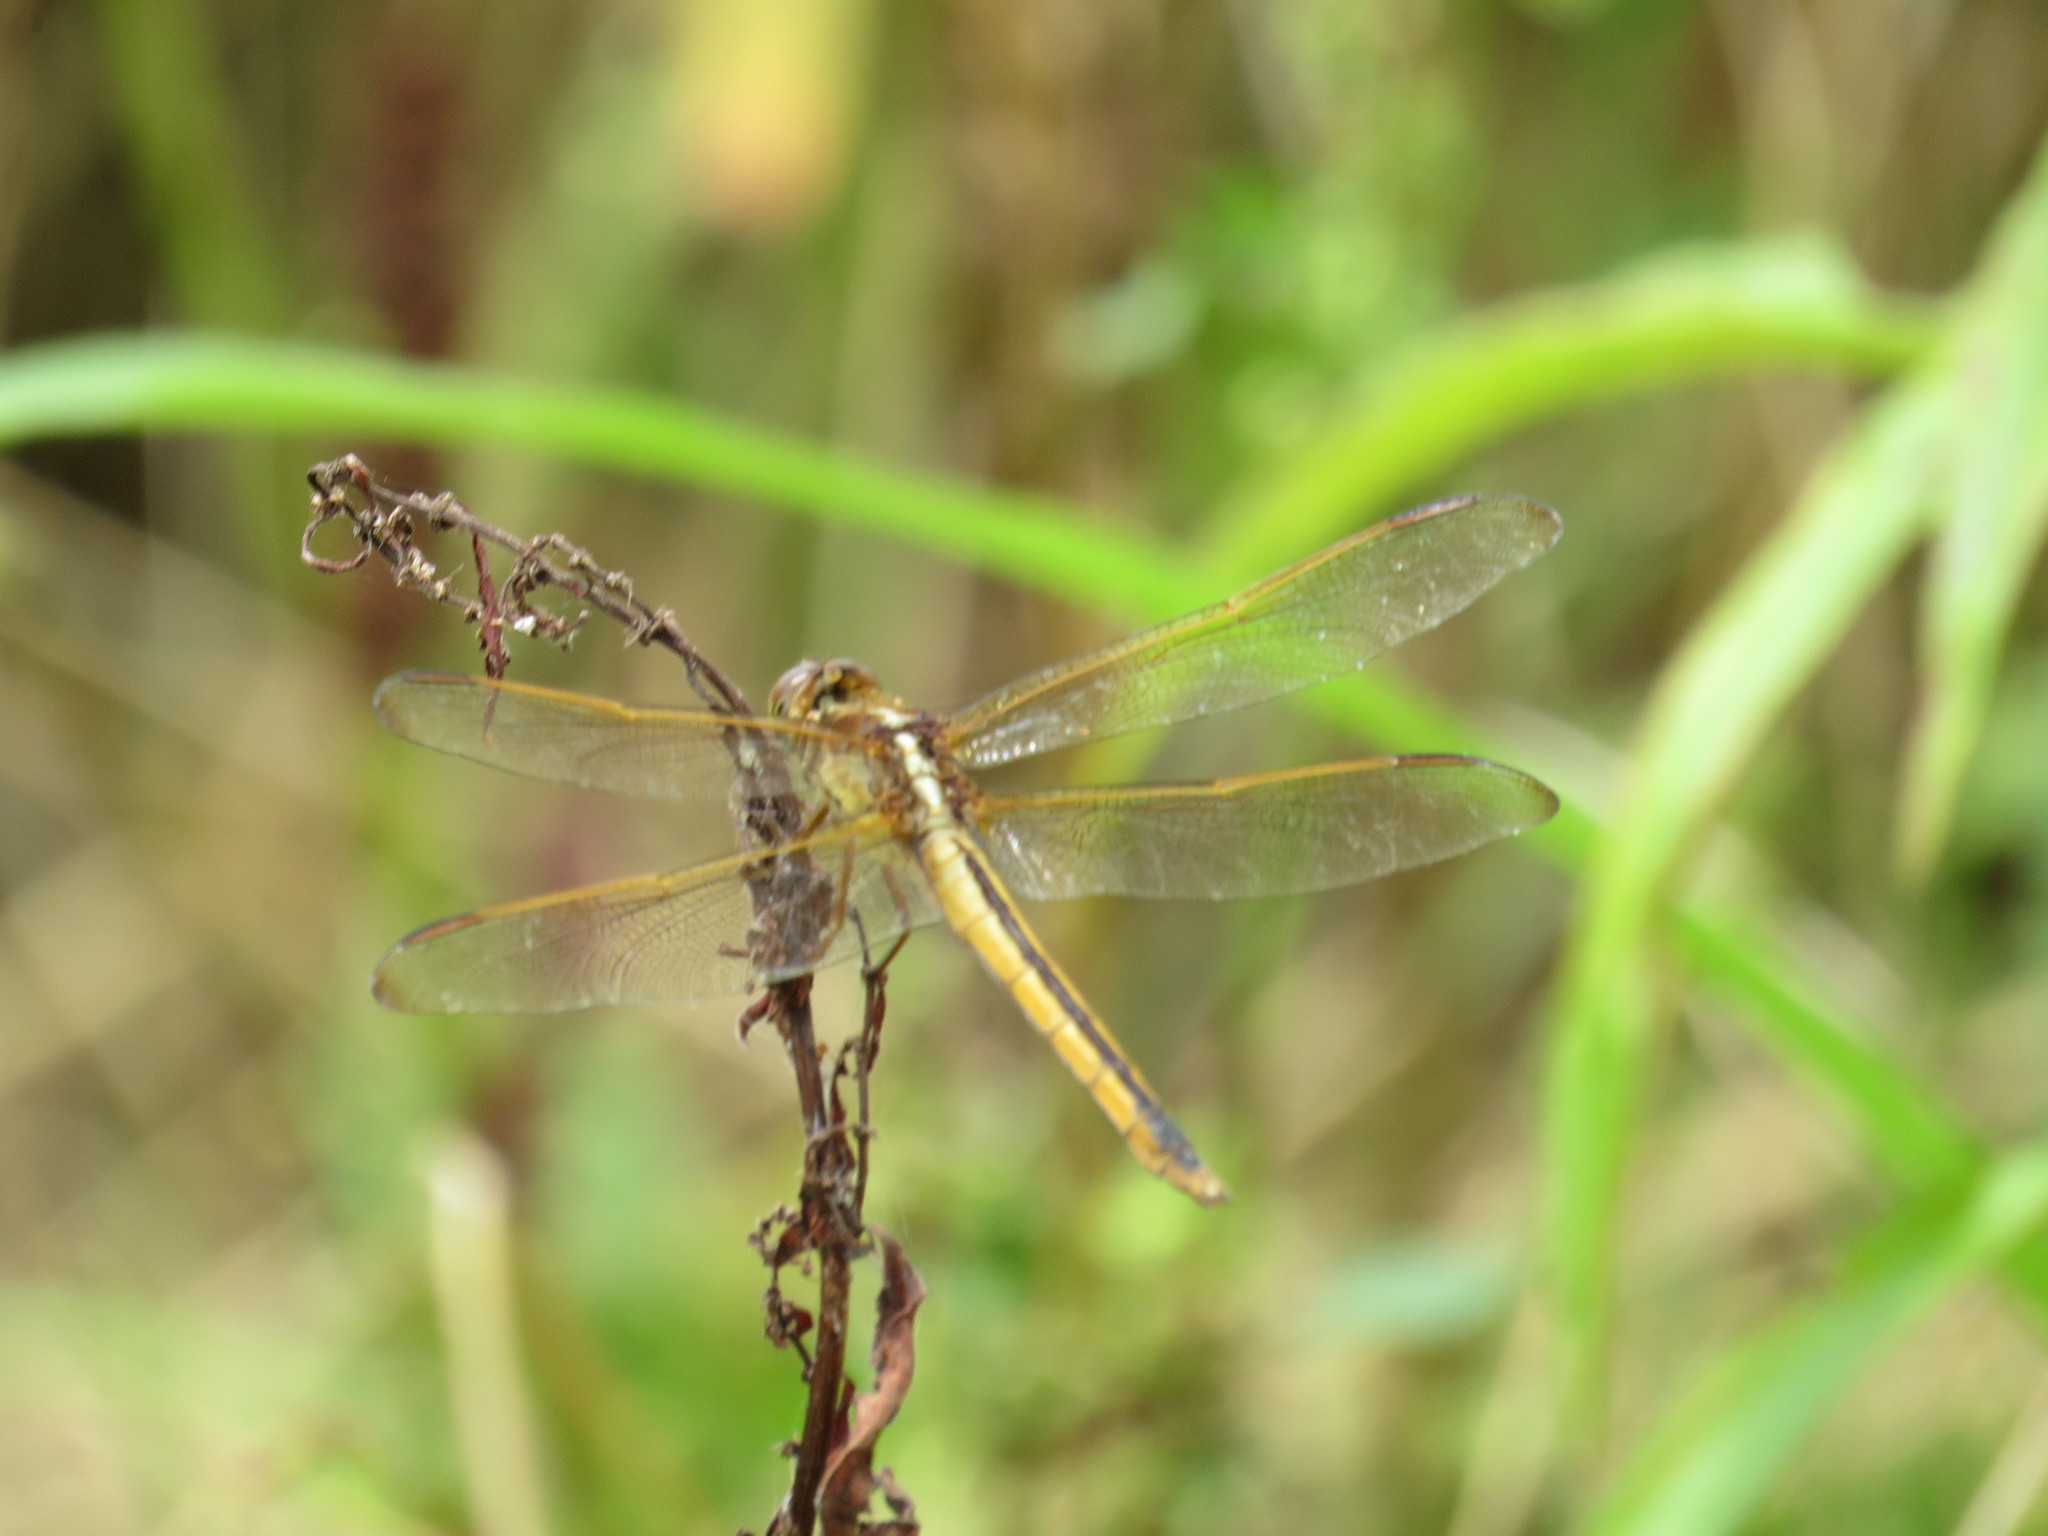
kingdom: Animalia
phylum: Arthropoda
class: Insecta
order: Odonata
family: Libellulidae
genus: Libellula
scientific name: Libellula needhami
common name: Needham's skimmer
